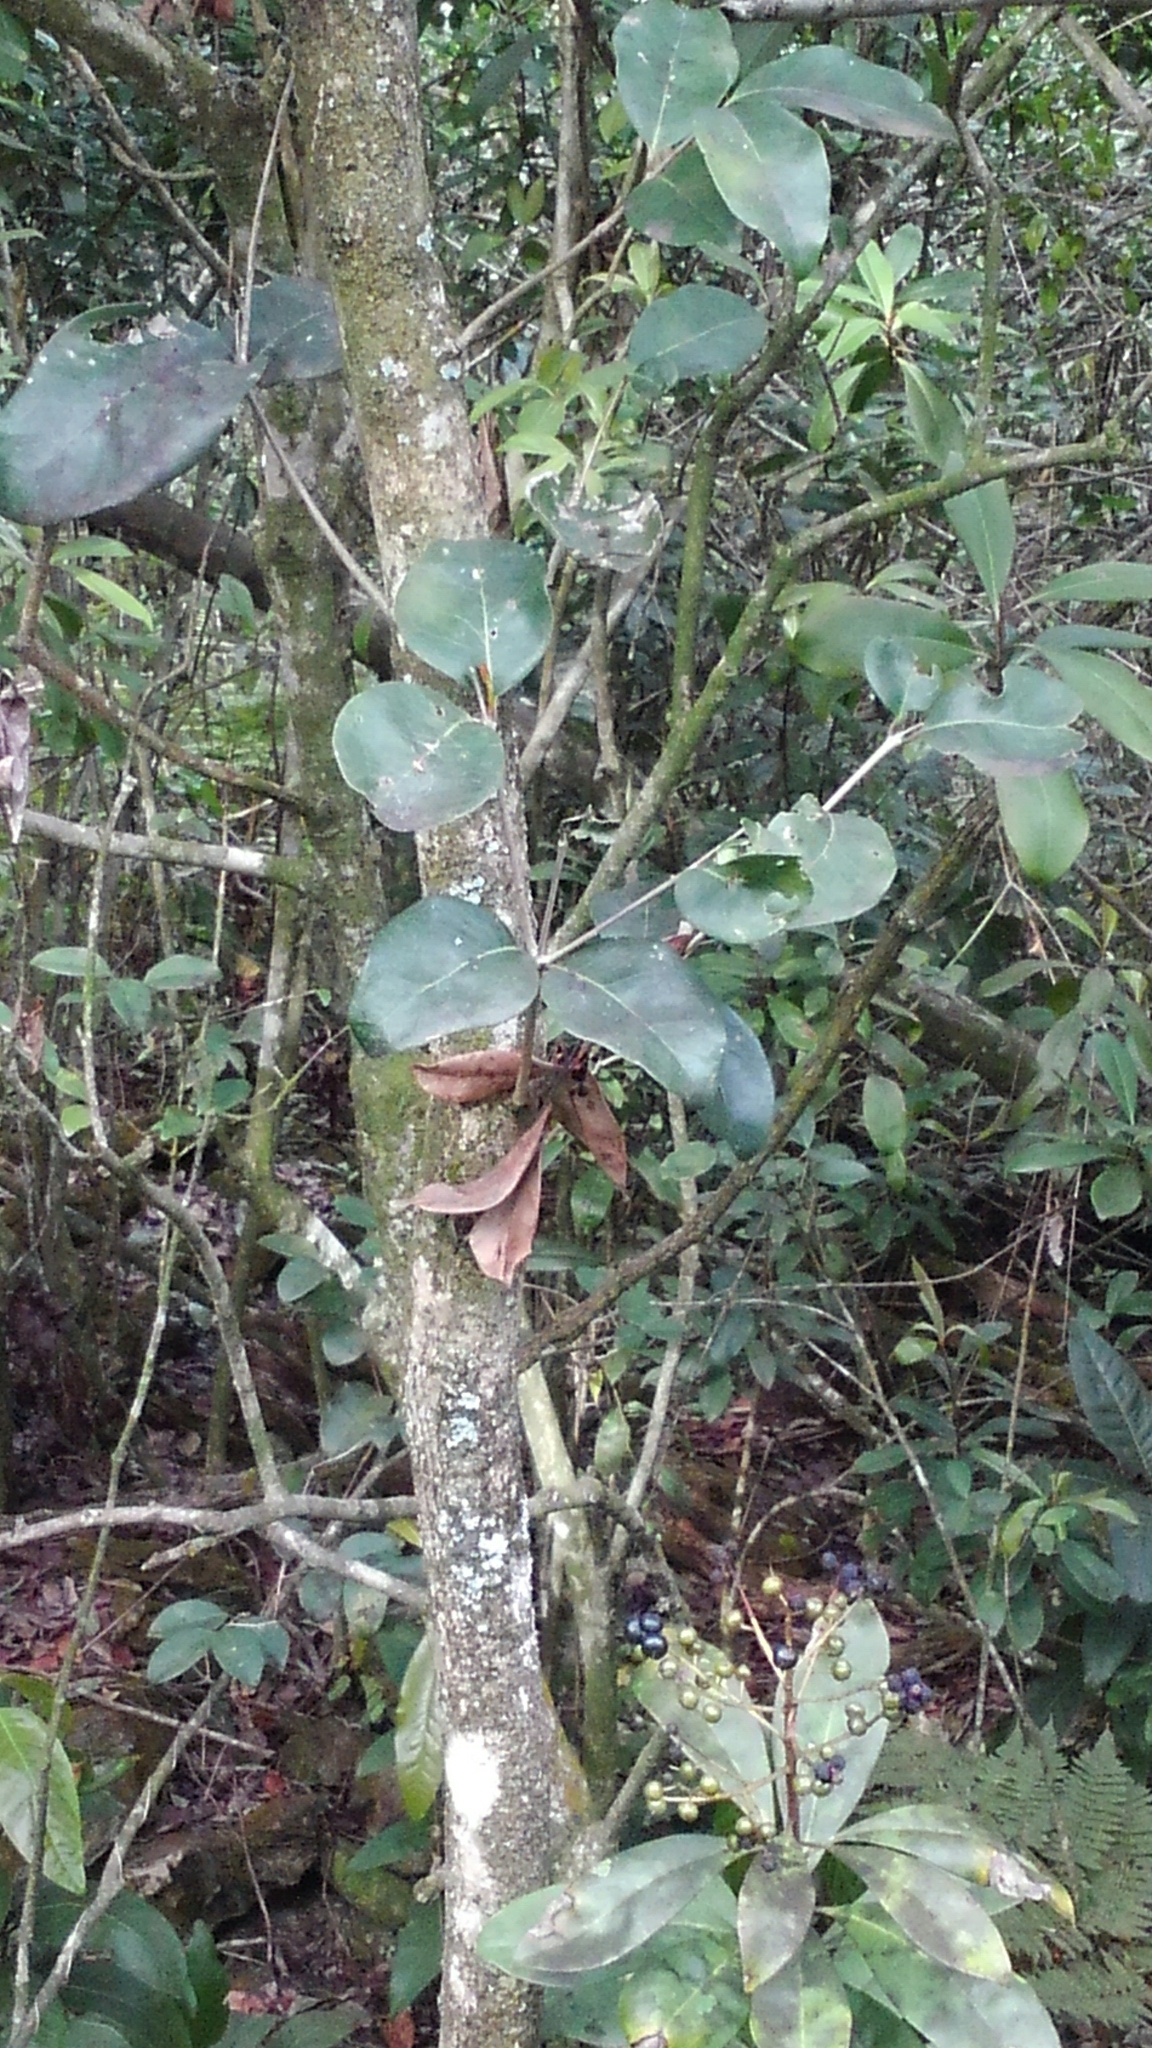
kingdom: Plantae
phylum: Tracheophyta
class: Magnoliopsida
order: Ericales
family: Primulaceae
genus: Ardisia
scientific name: Ardisia escallonioides
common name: Island marlberry
